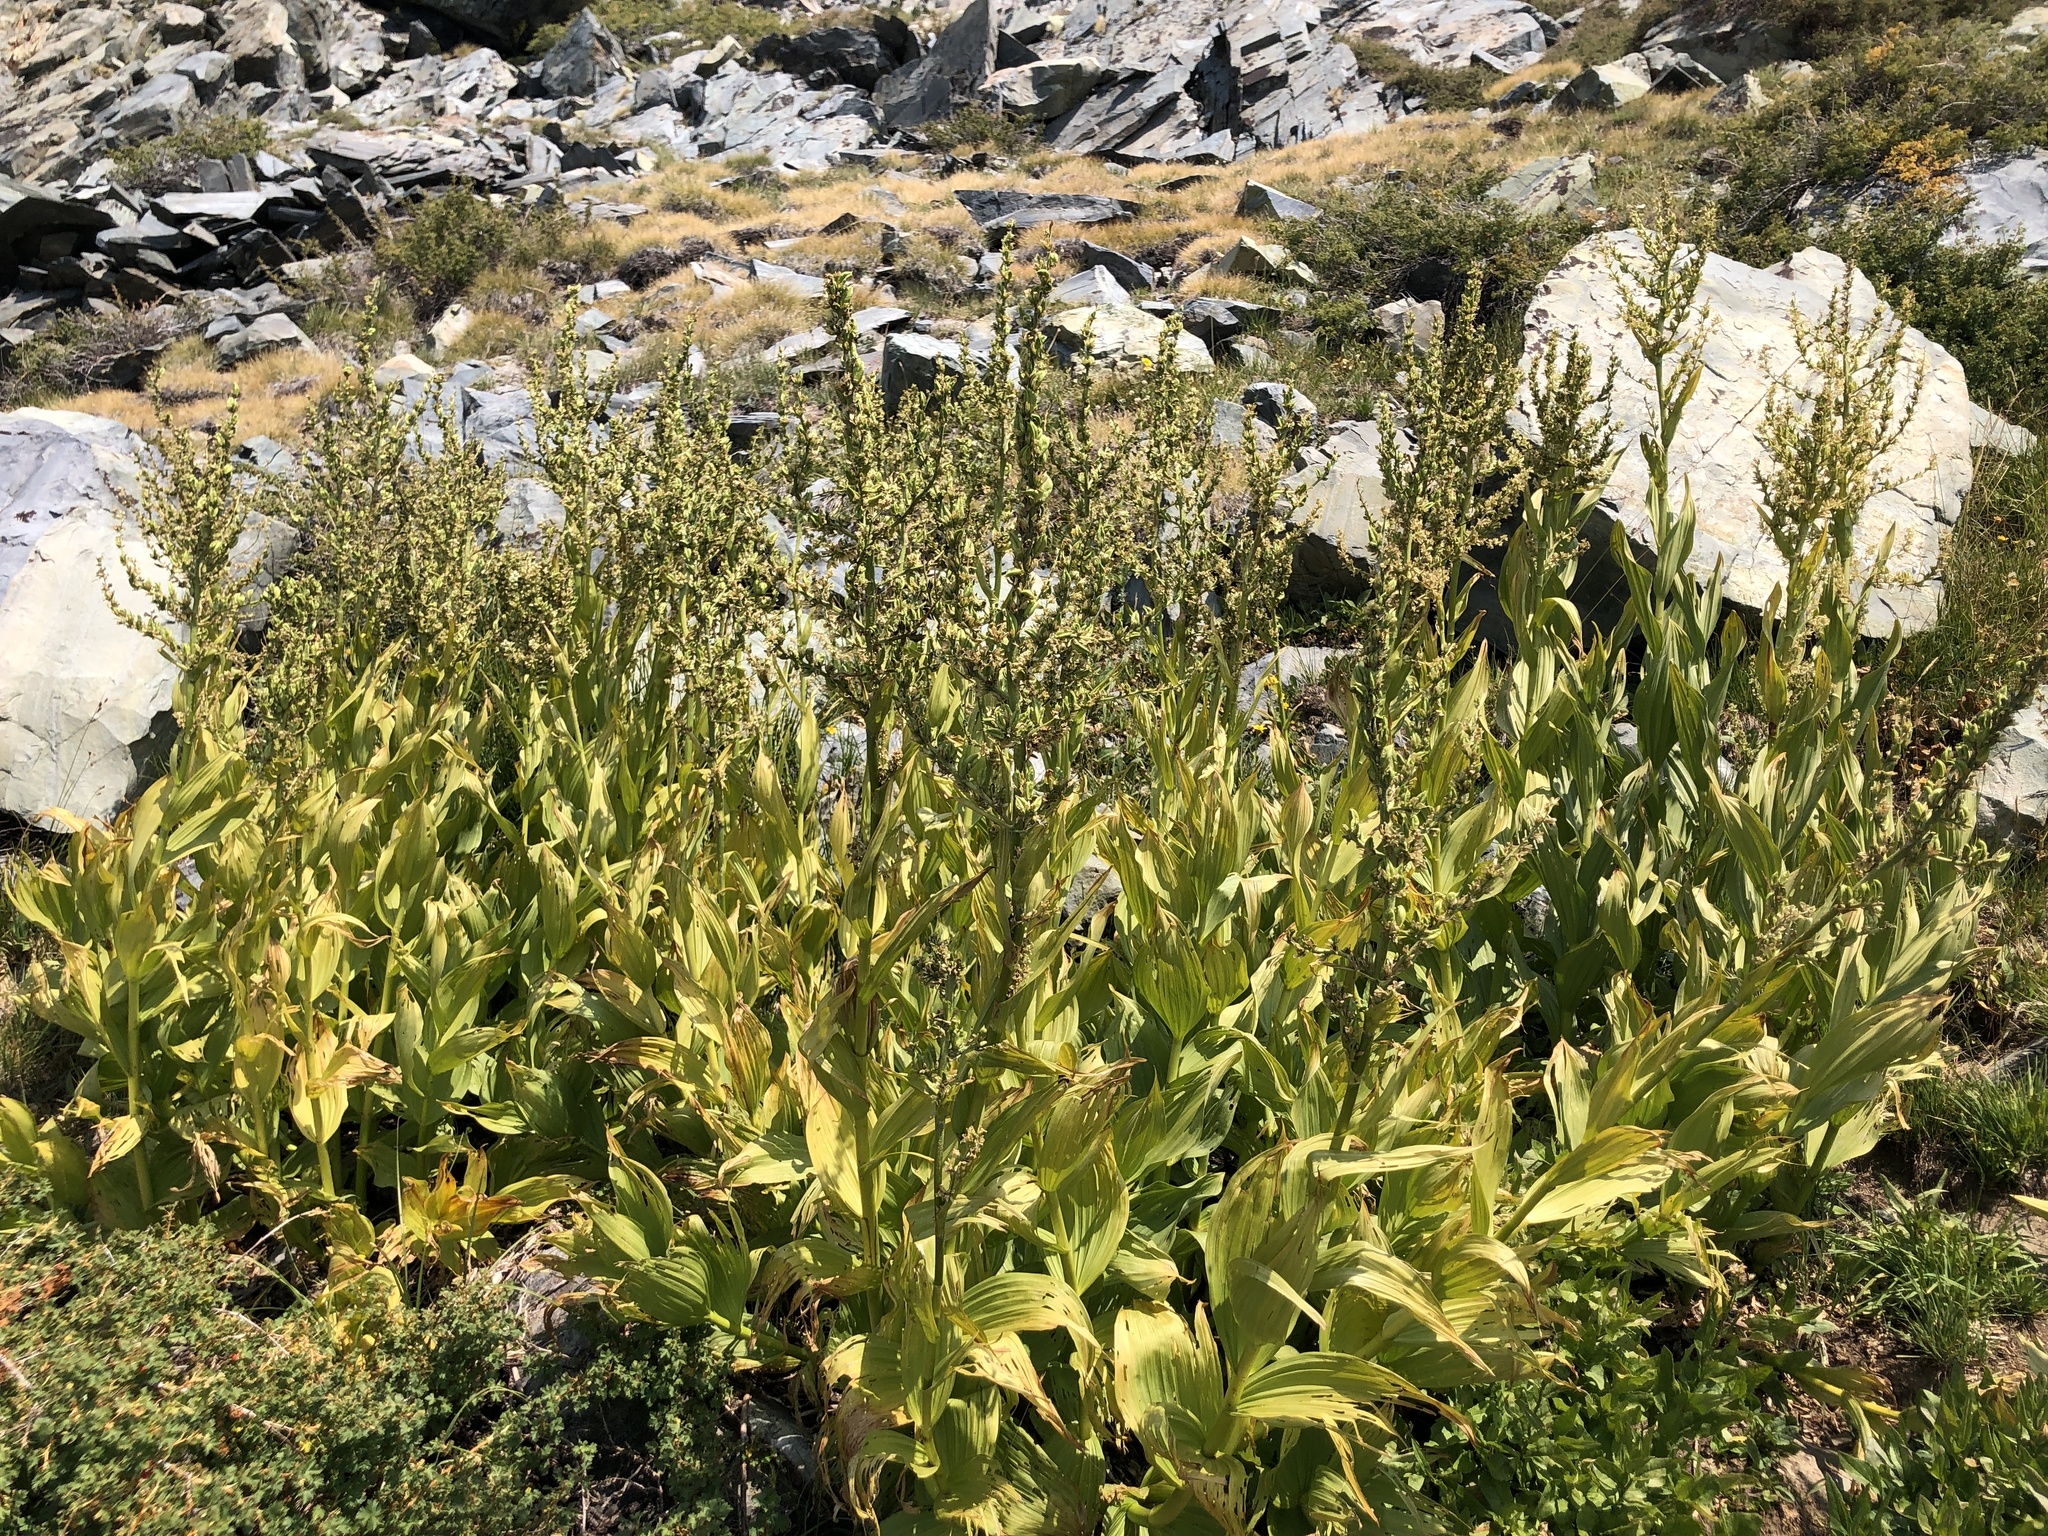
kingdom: Plantae
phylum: Tracheophyta
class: Liliopsida
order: Liliales
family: Melanthiaceae
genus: Veratrum
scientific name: Veratrum californicum
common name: California veratrum
